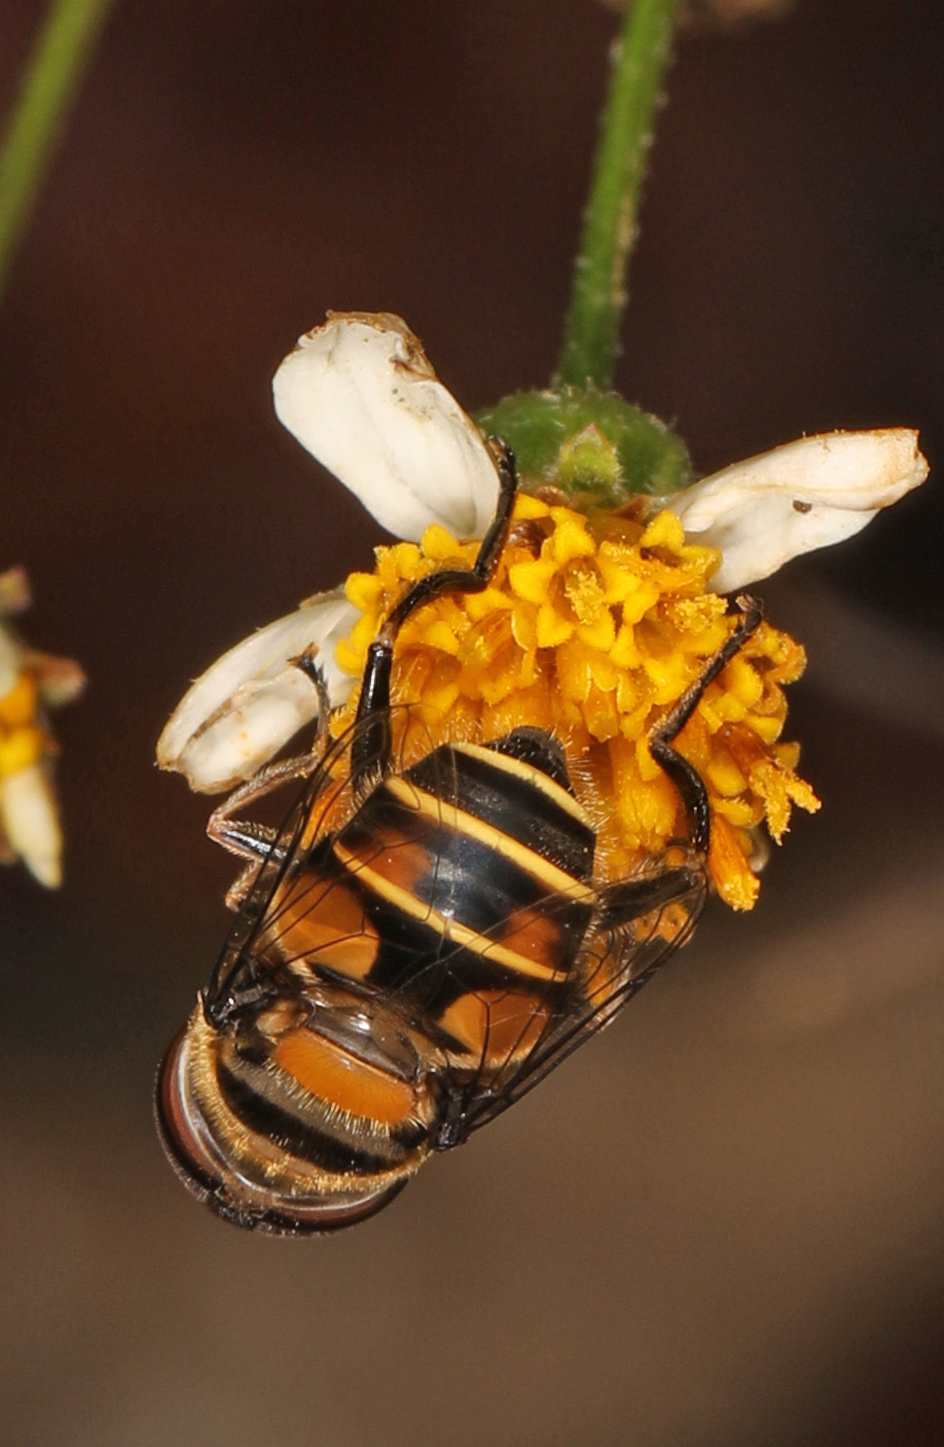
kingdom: Animalia
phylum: Arthropoda
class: Insecta
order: Diptera
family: Syrphidae
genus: Palpada
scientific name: Palpada agrorum
